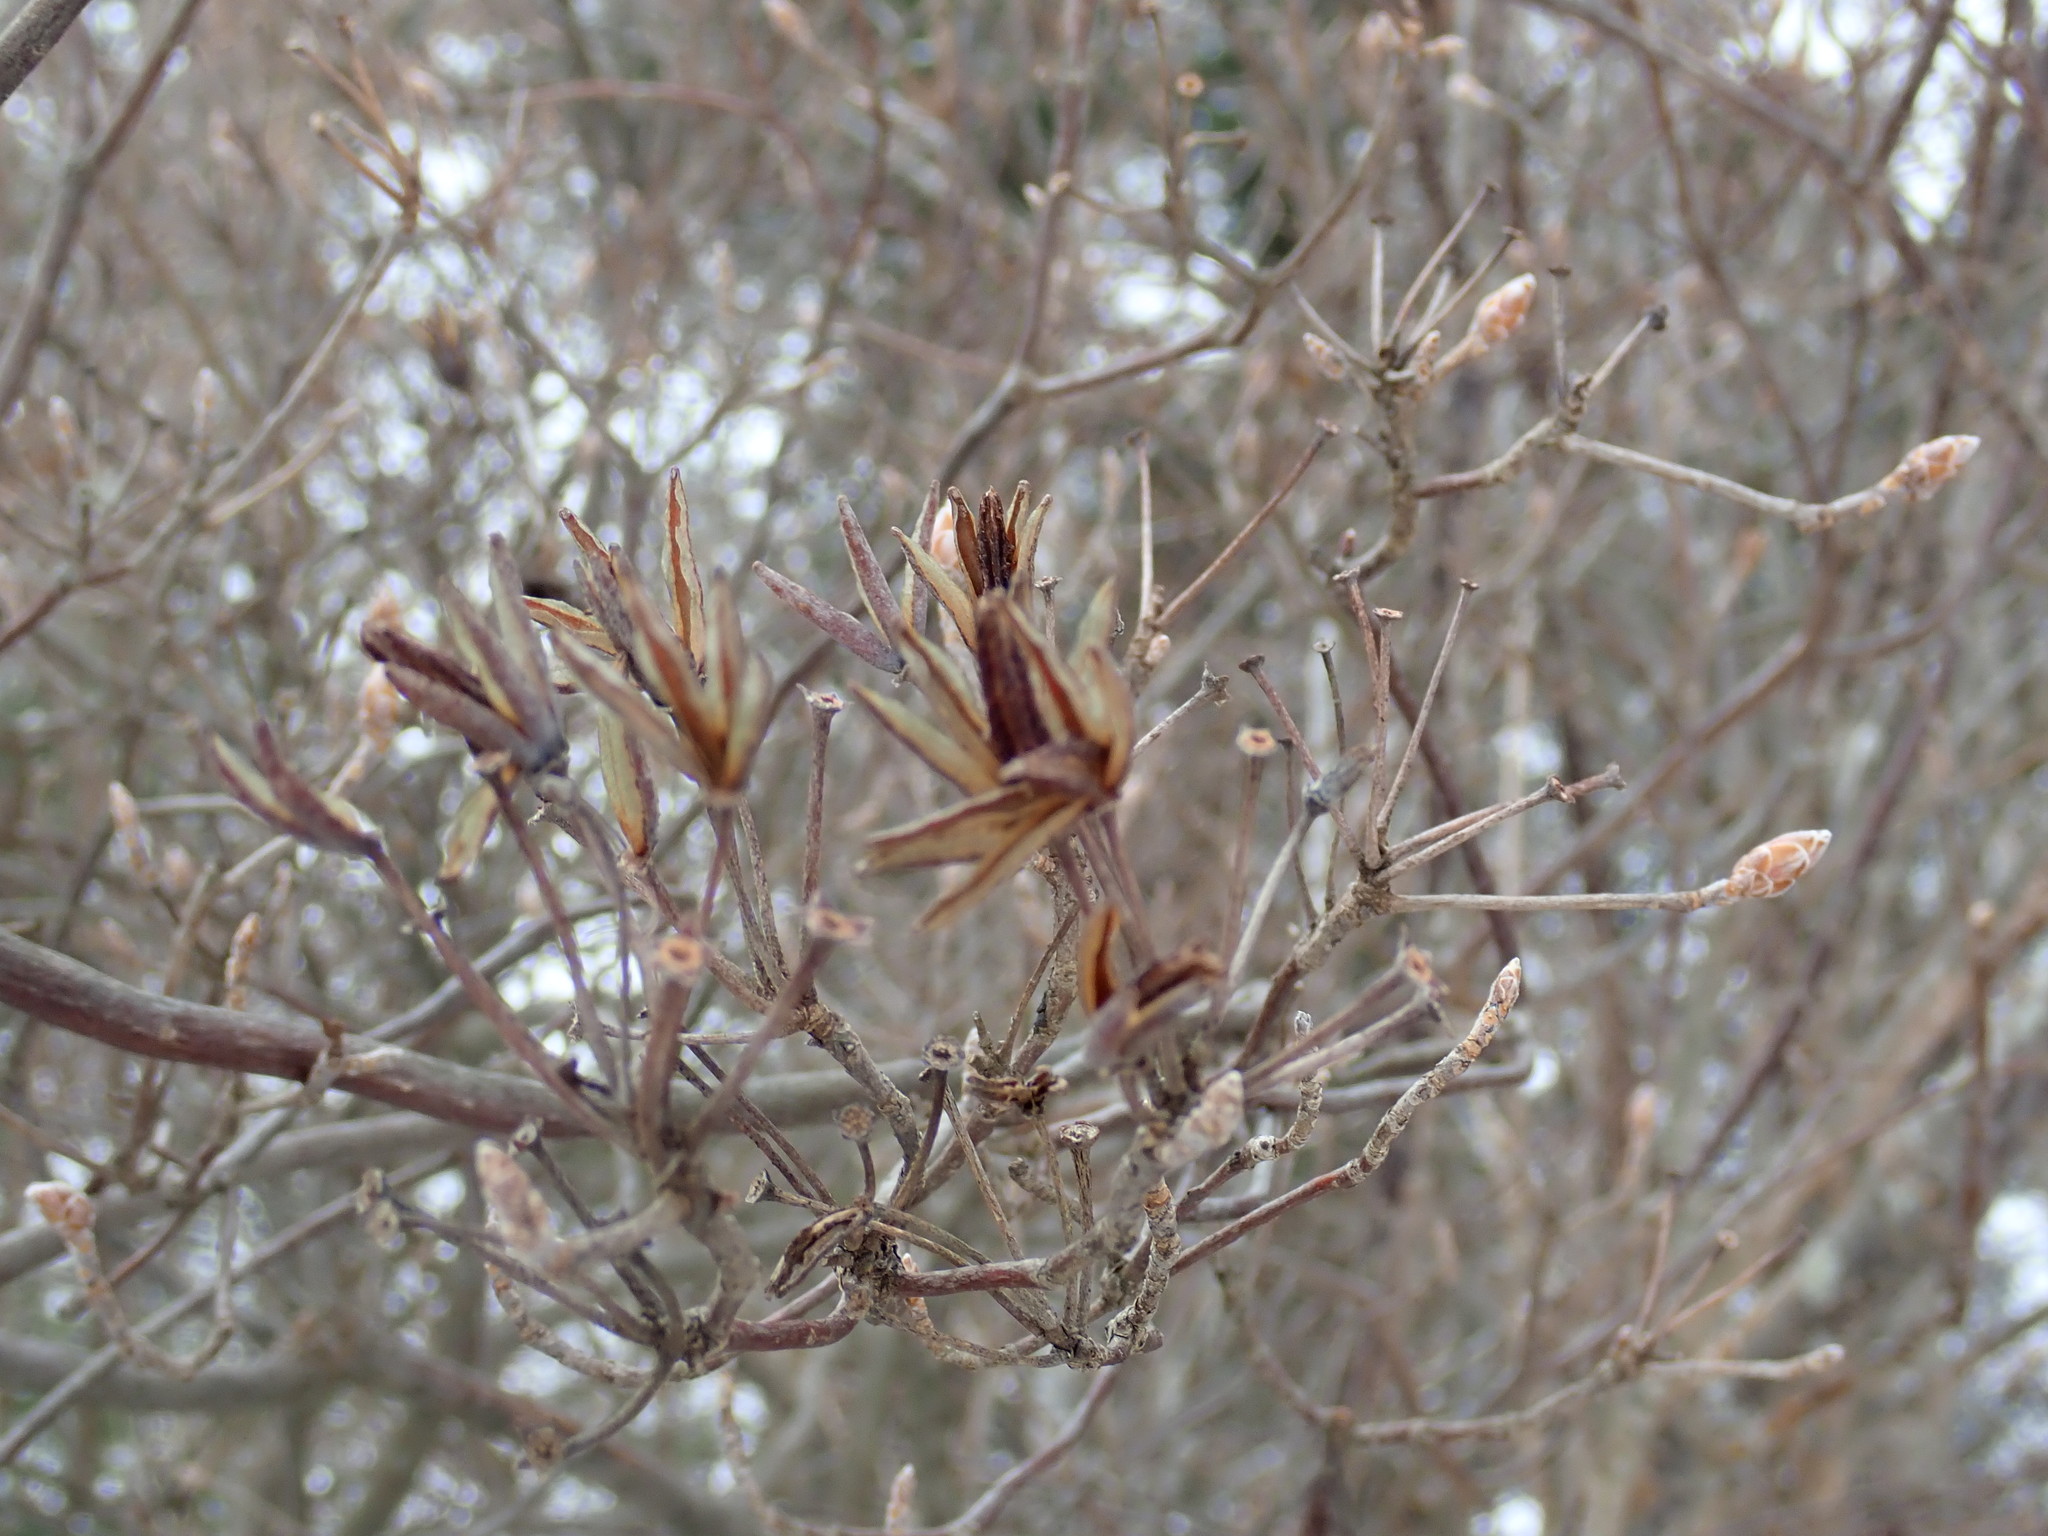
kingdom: Plantae
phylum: Tracheophyta
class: Magnoliopsida
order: Ericales
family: Ericaceae
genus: Rhododendron
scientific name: Rhododendron
